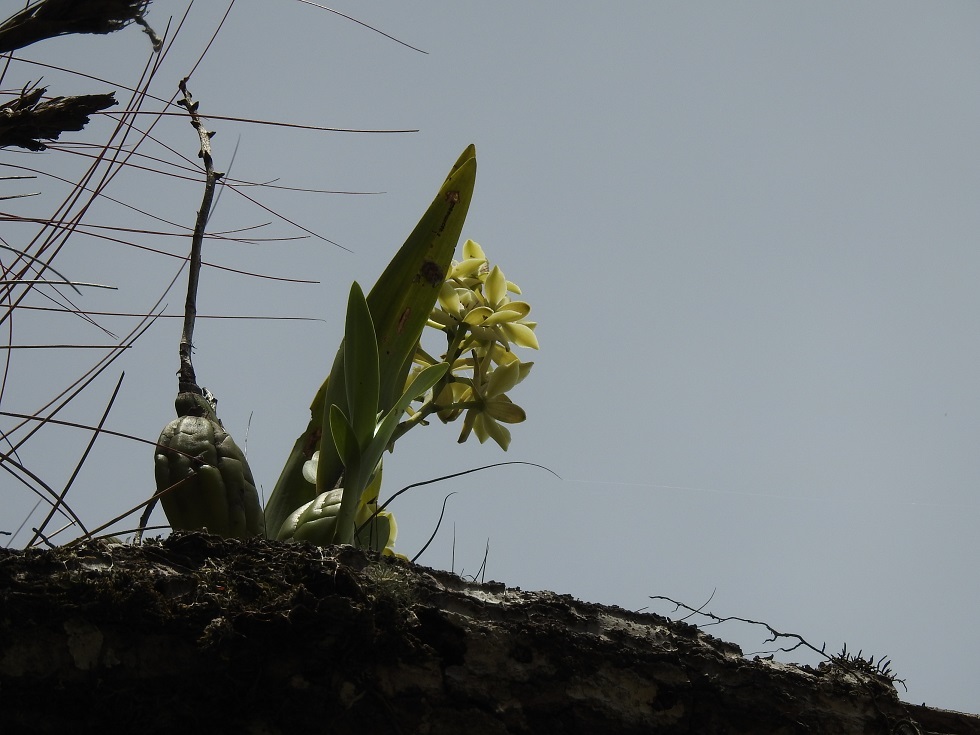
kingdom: Plantae
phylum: Tracheophyta
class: Liliopsida
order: Asparagales
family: Orchidaceae
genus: Prosthechea
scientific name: Prosthechea radiata
